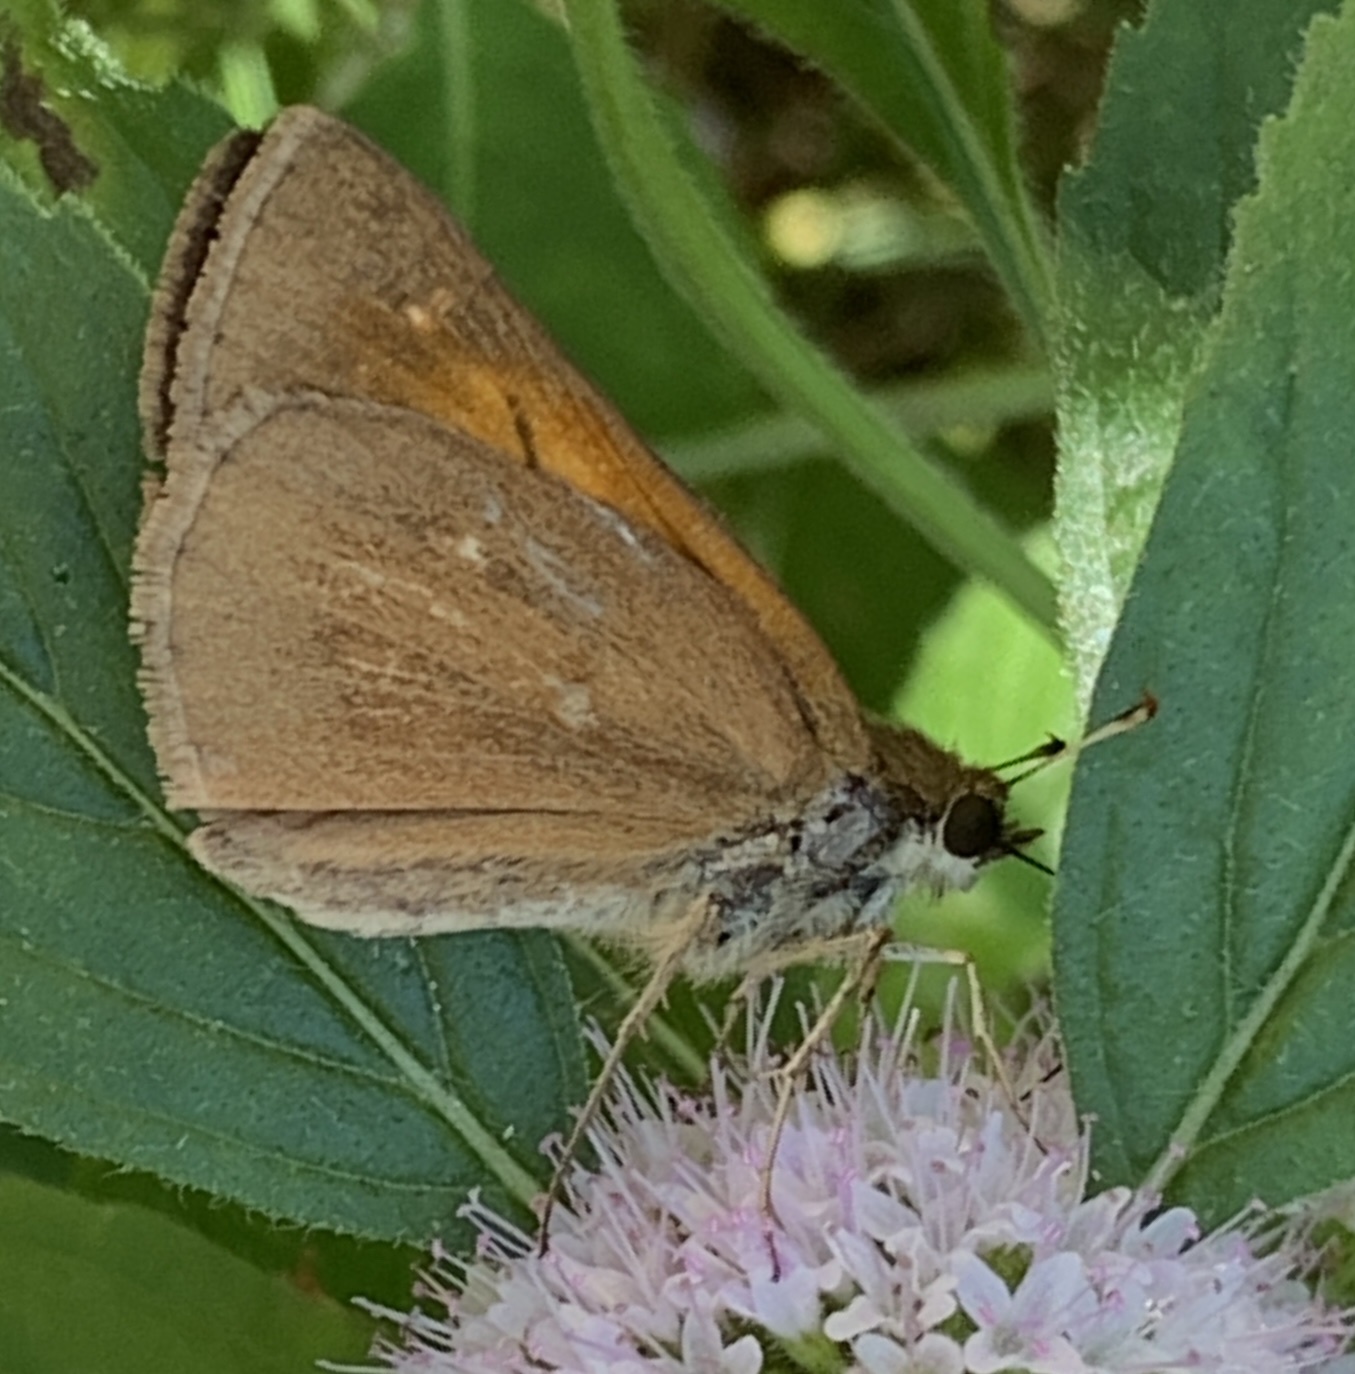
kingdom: Animalia
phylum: Arthropoda
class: Insecta
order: Lepidoptera
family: Hesperiidae
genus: Poanes
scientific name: Poanes viator
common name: Broad-winged skipper
